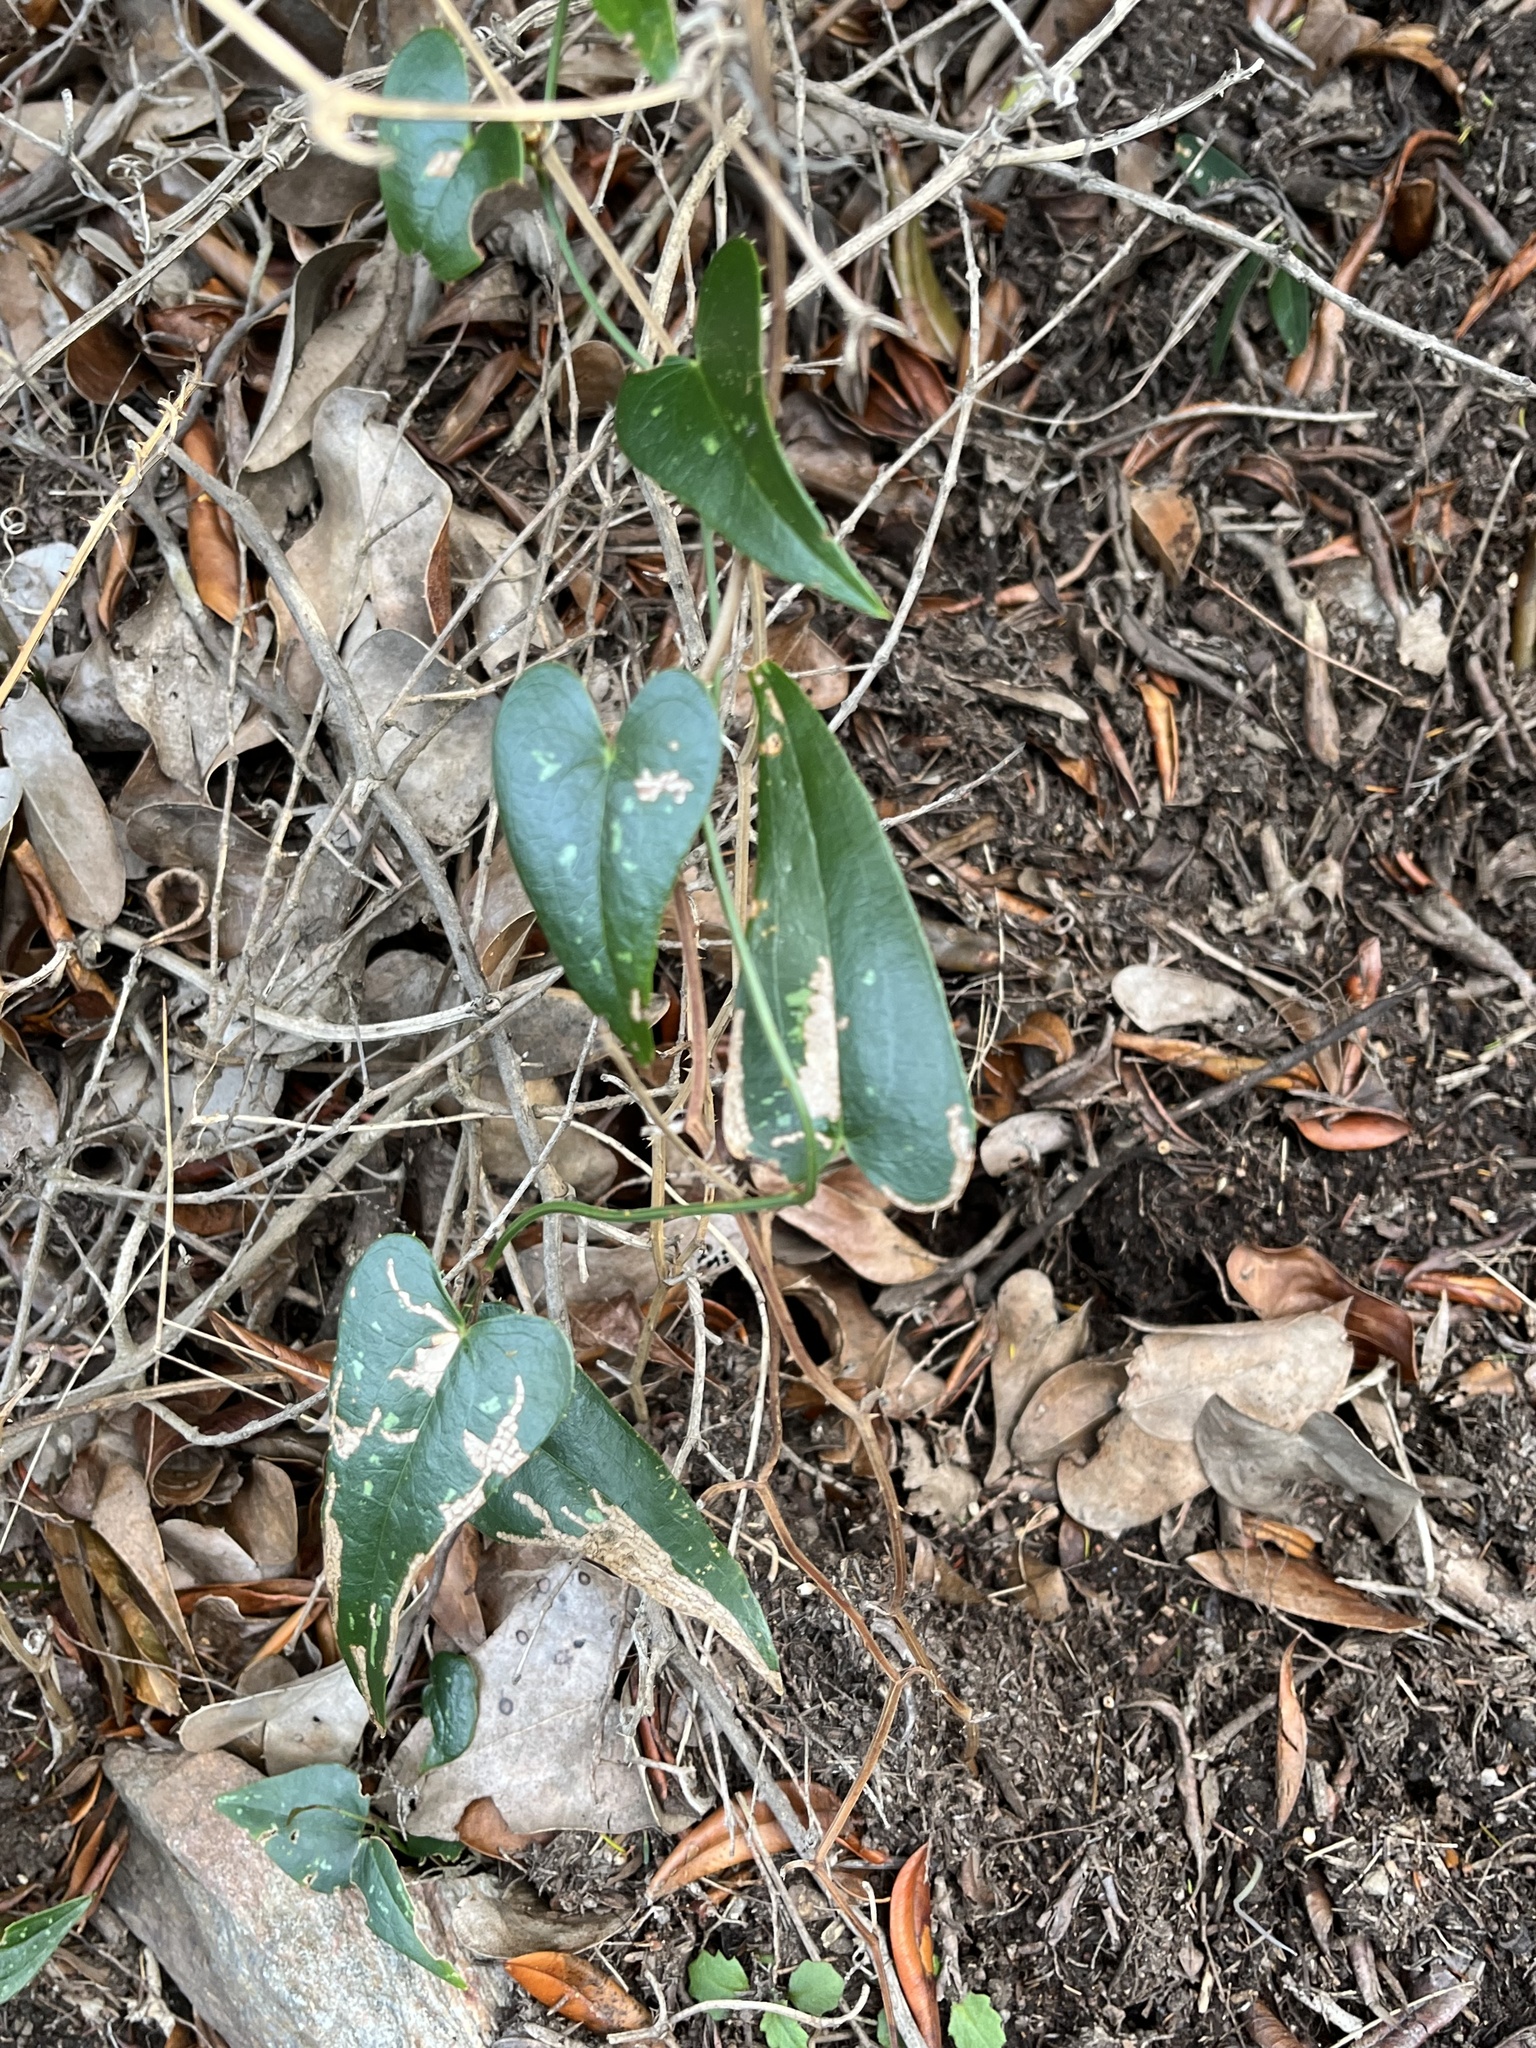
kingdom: Plantae
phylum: Tracheophyta
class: Liliopsida
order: Liliales
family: Smilacaceae
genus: Smilax
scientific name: Smilax aspera
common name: Common smilax
